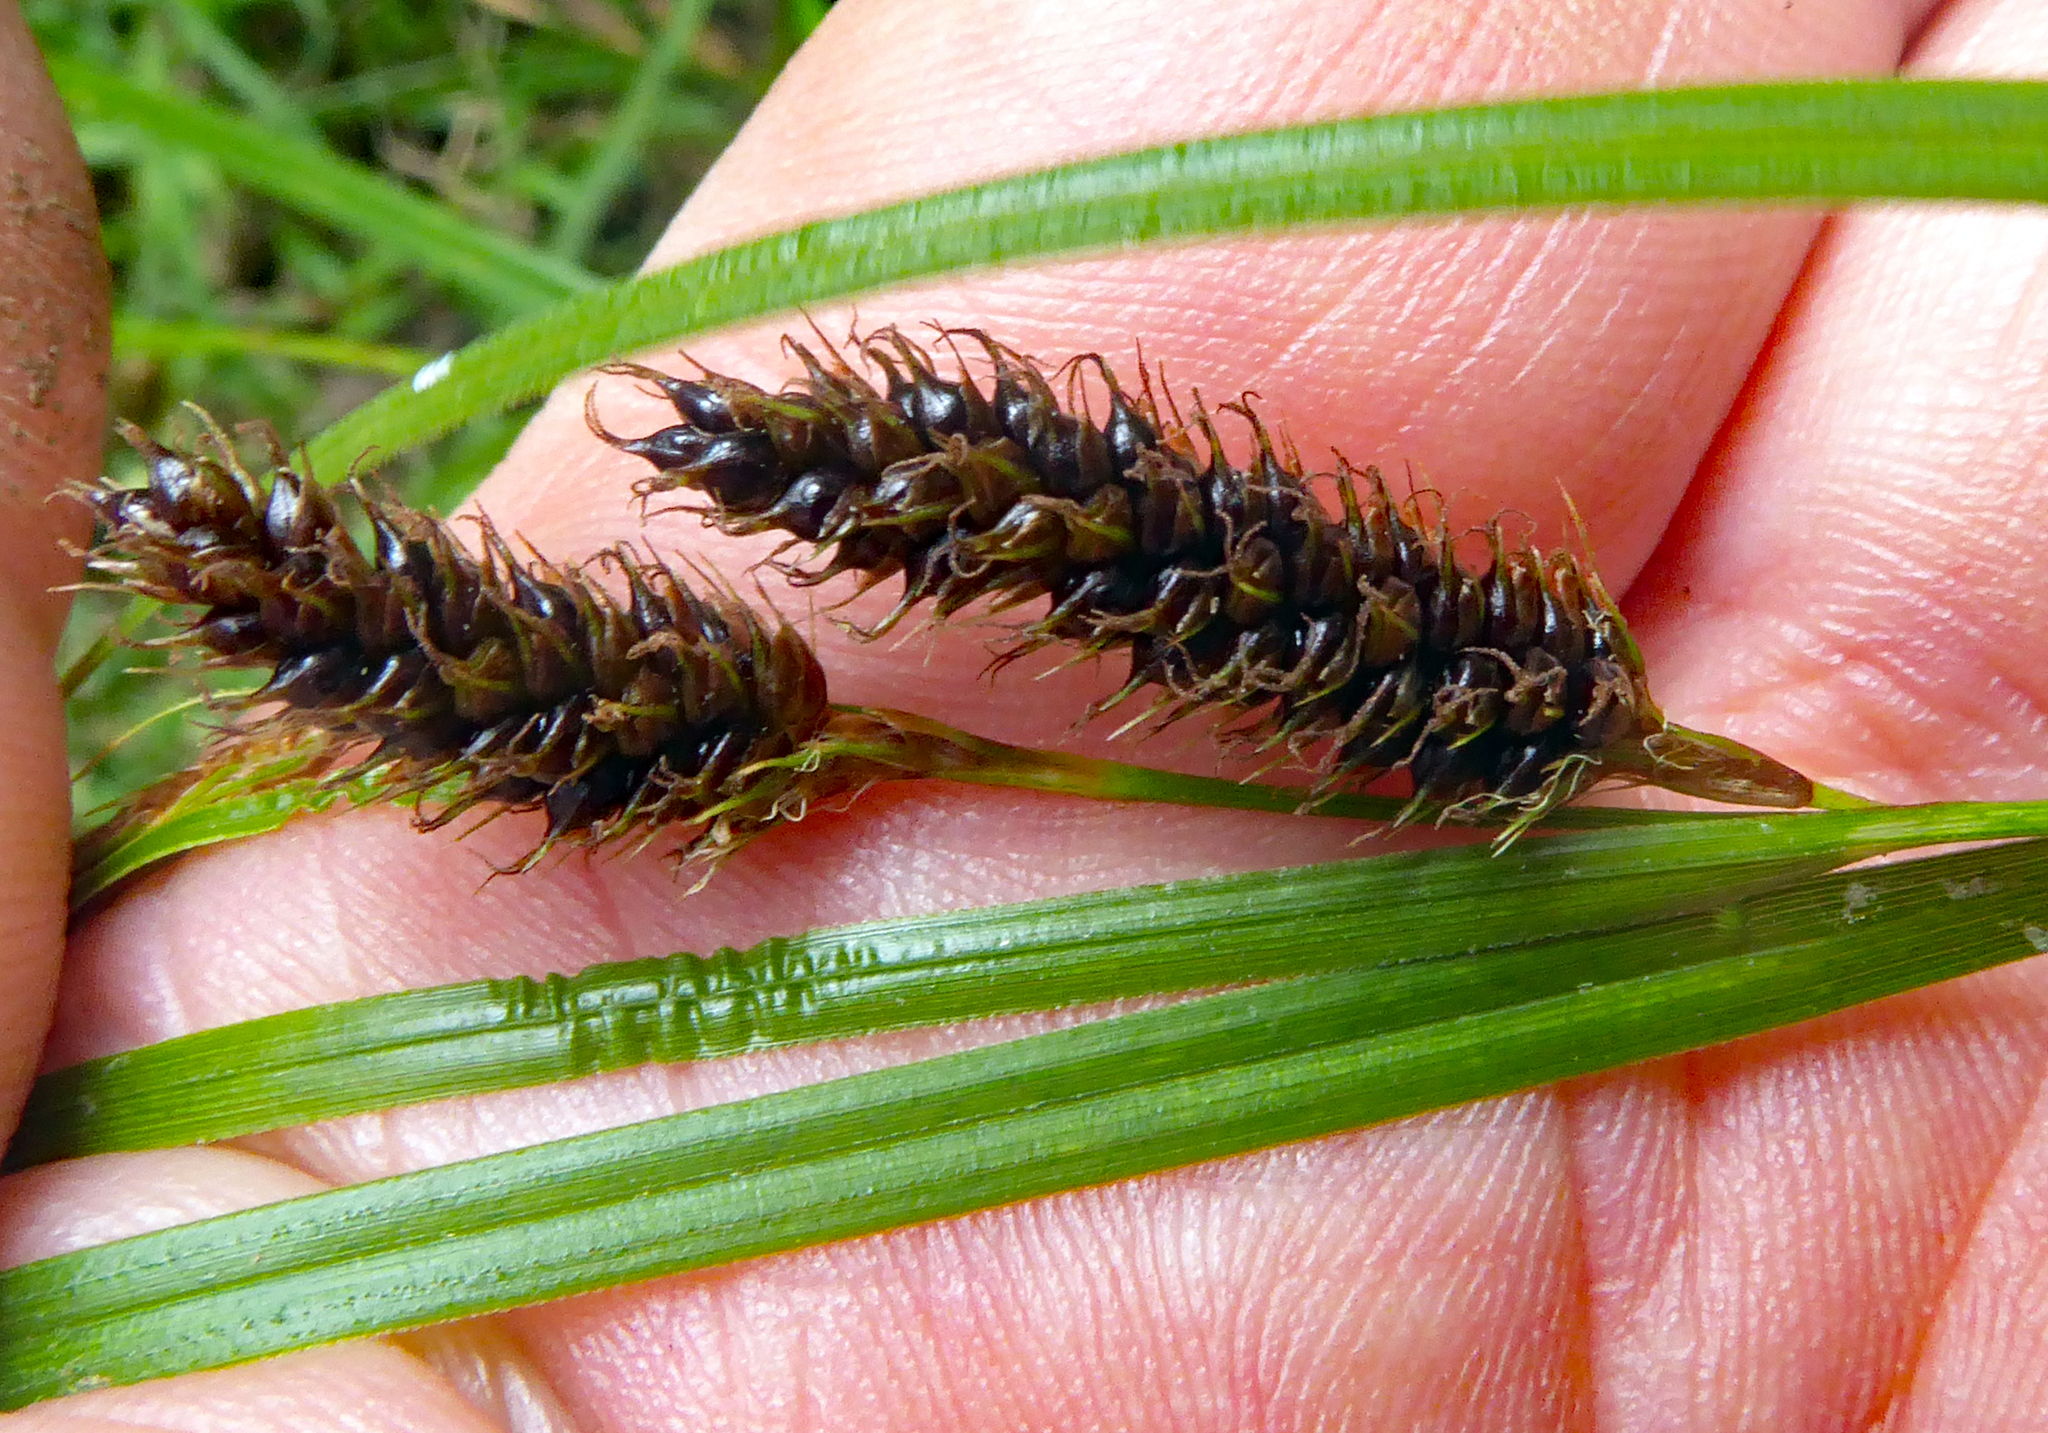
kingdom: Plantae
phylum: Tracheophyta
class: Liliopsida
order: Poales
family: Cyperaceae
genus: Carex
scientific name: Carex dissita
